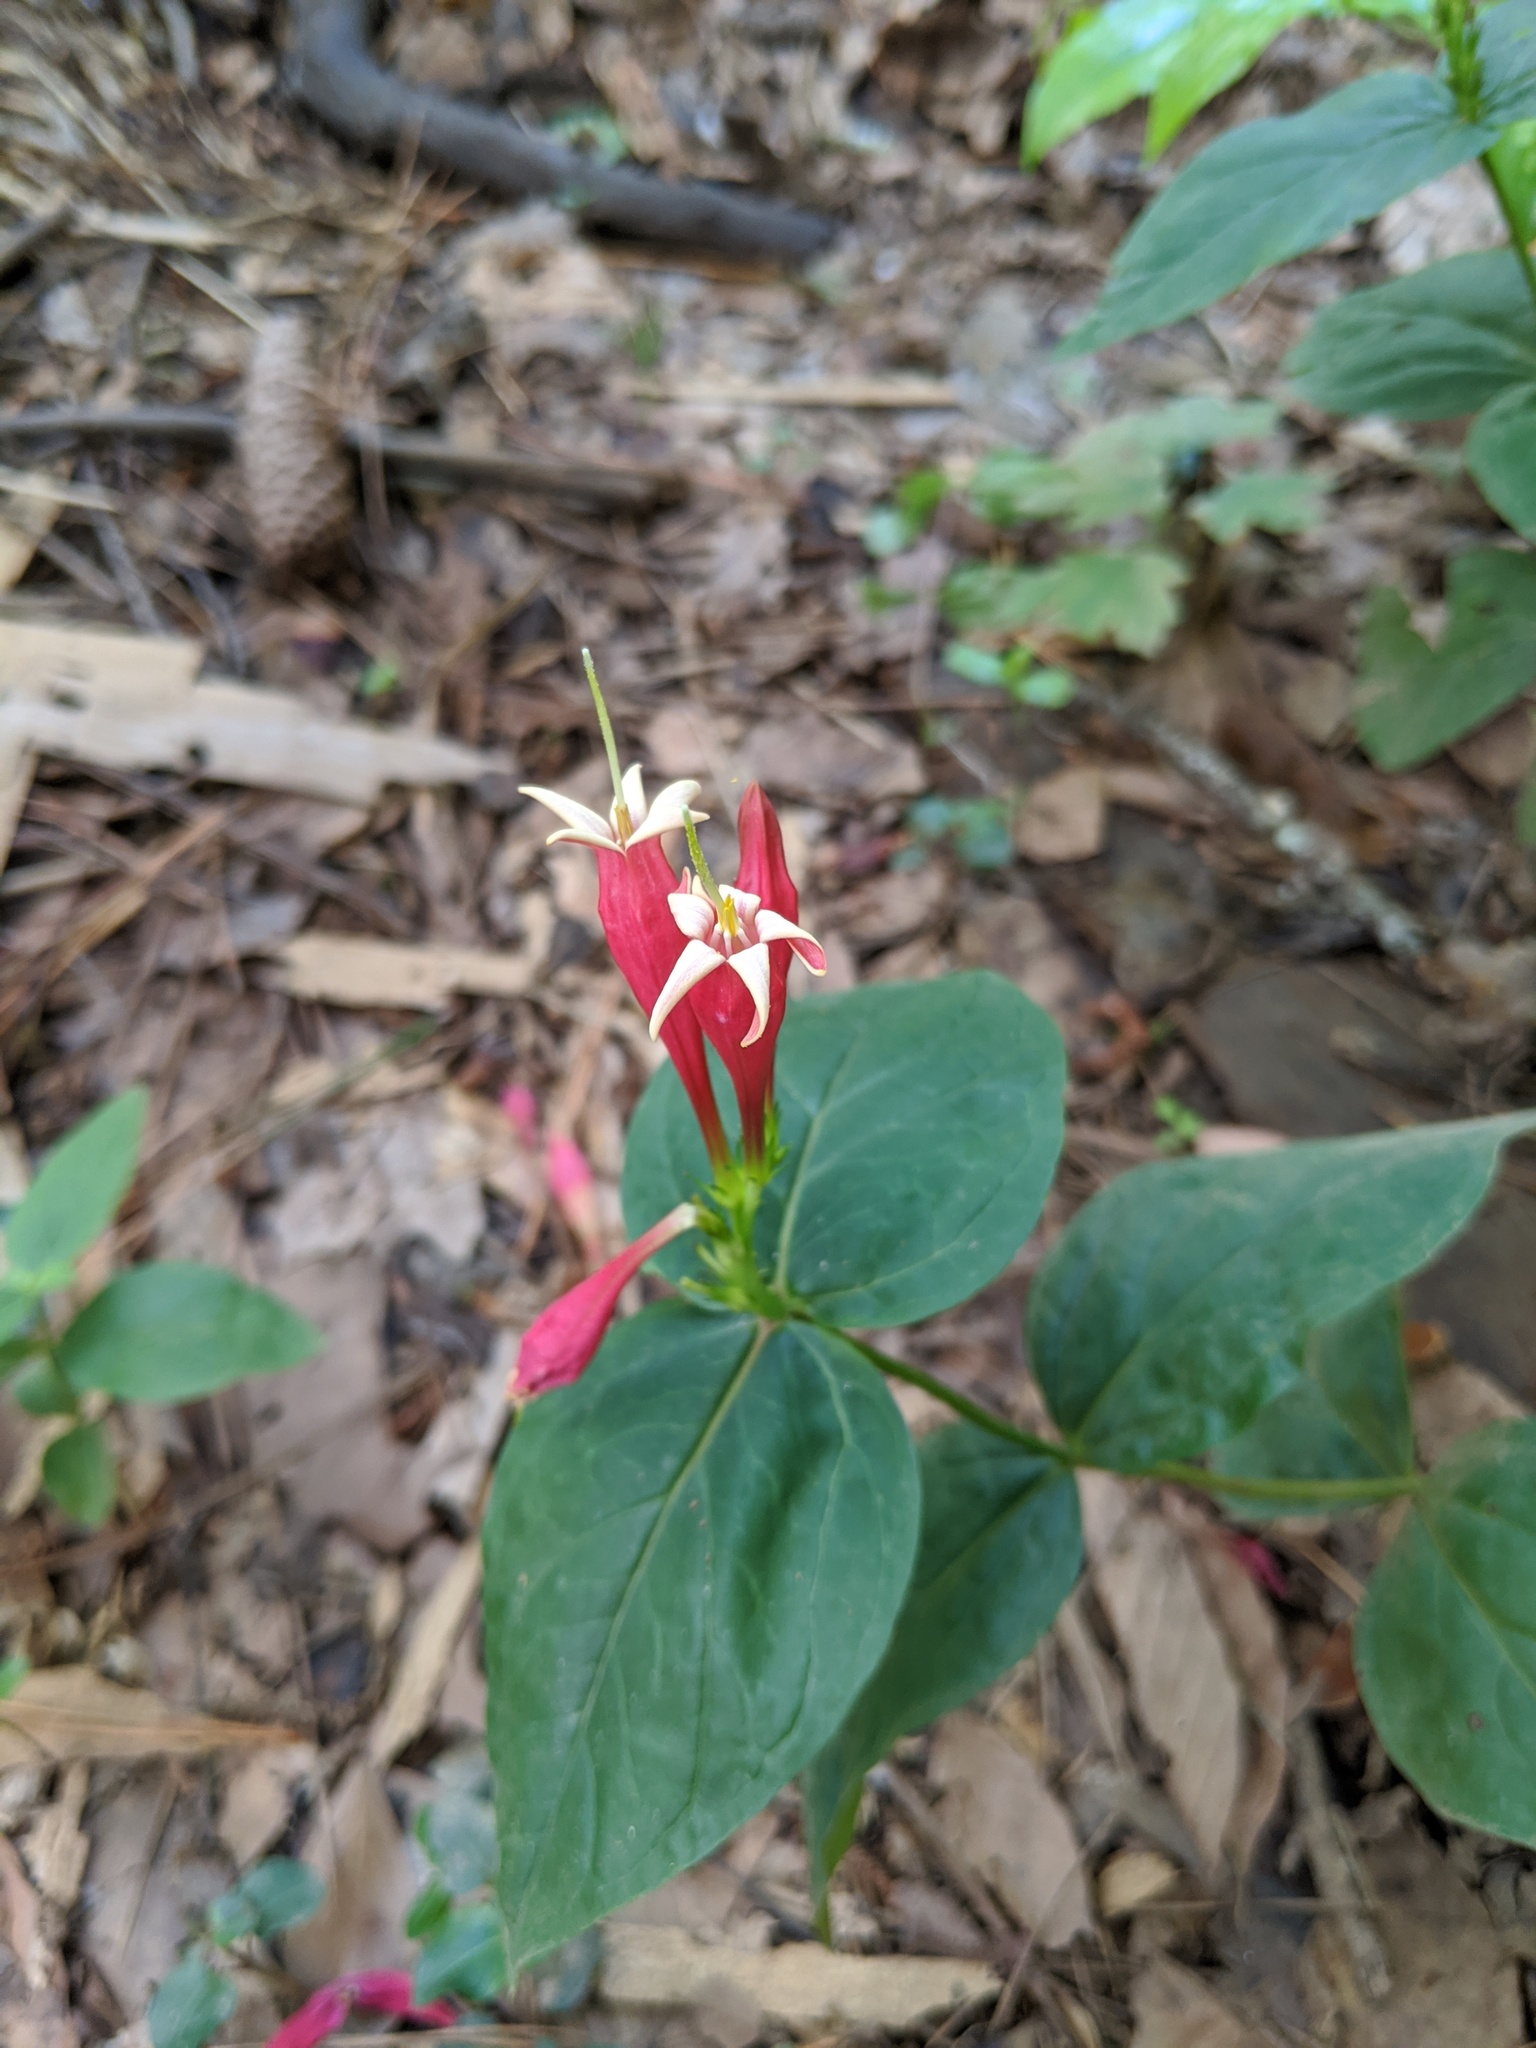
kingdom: Plantae
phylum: Tracheophyta
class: Magnoliopsida
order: Gentianales
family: Loganiaceae
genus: Spigelia
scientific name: Spigelia marilandica
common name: Indian-pink
